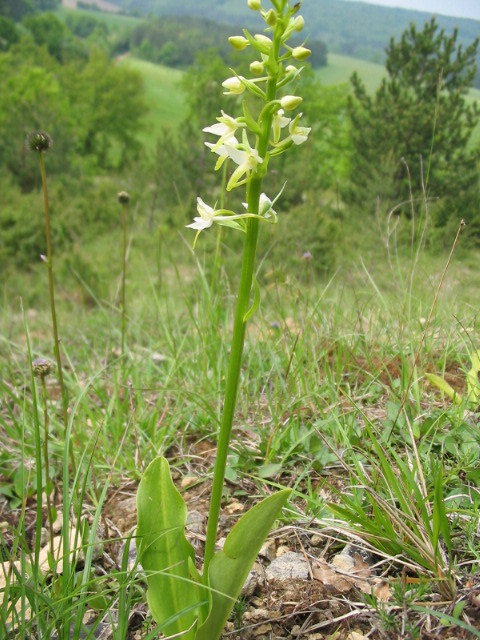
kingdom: Plantae
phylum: Tracheophyta
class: Liliopsida
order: Asparagales
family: Orchidaceae
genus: Platanthera
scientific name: Platanthera bifolia
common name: Lesser butterfly-orchid
